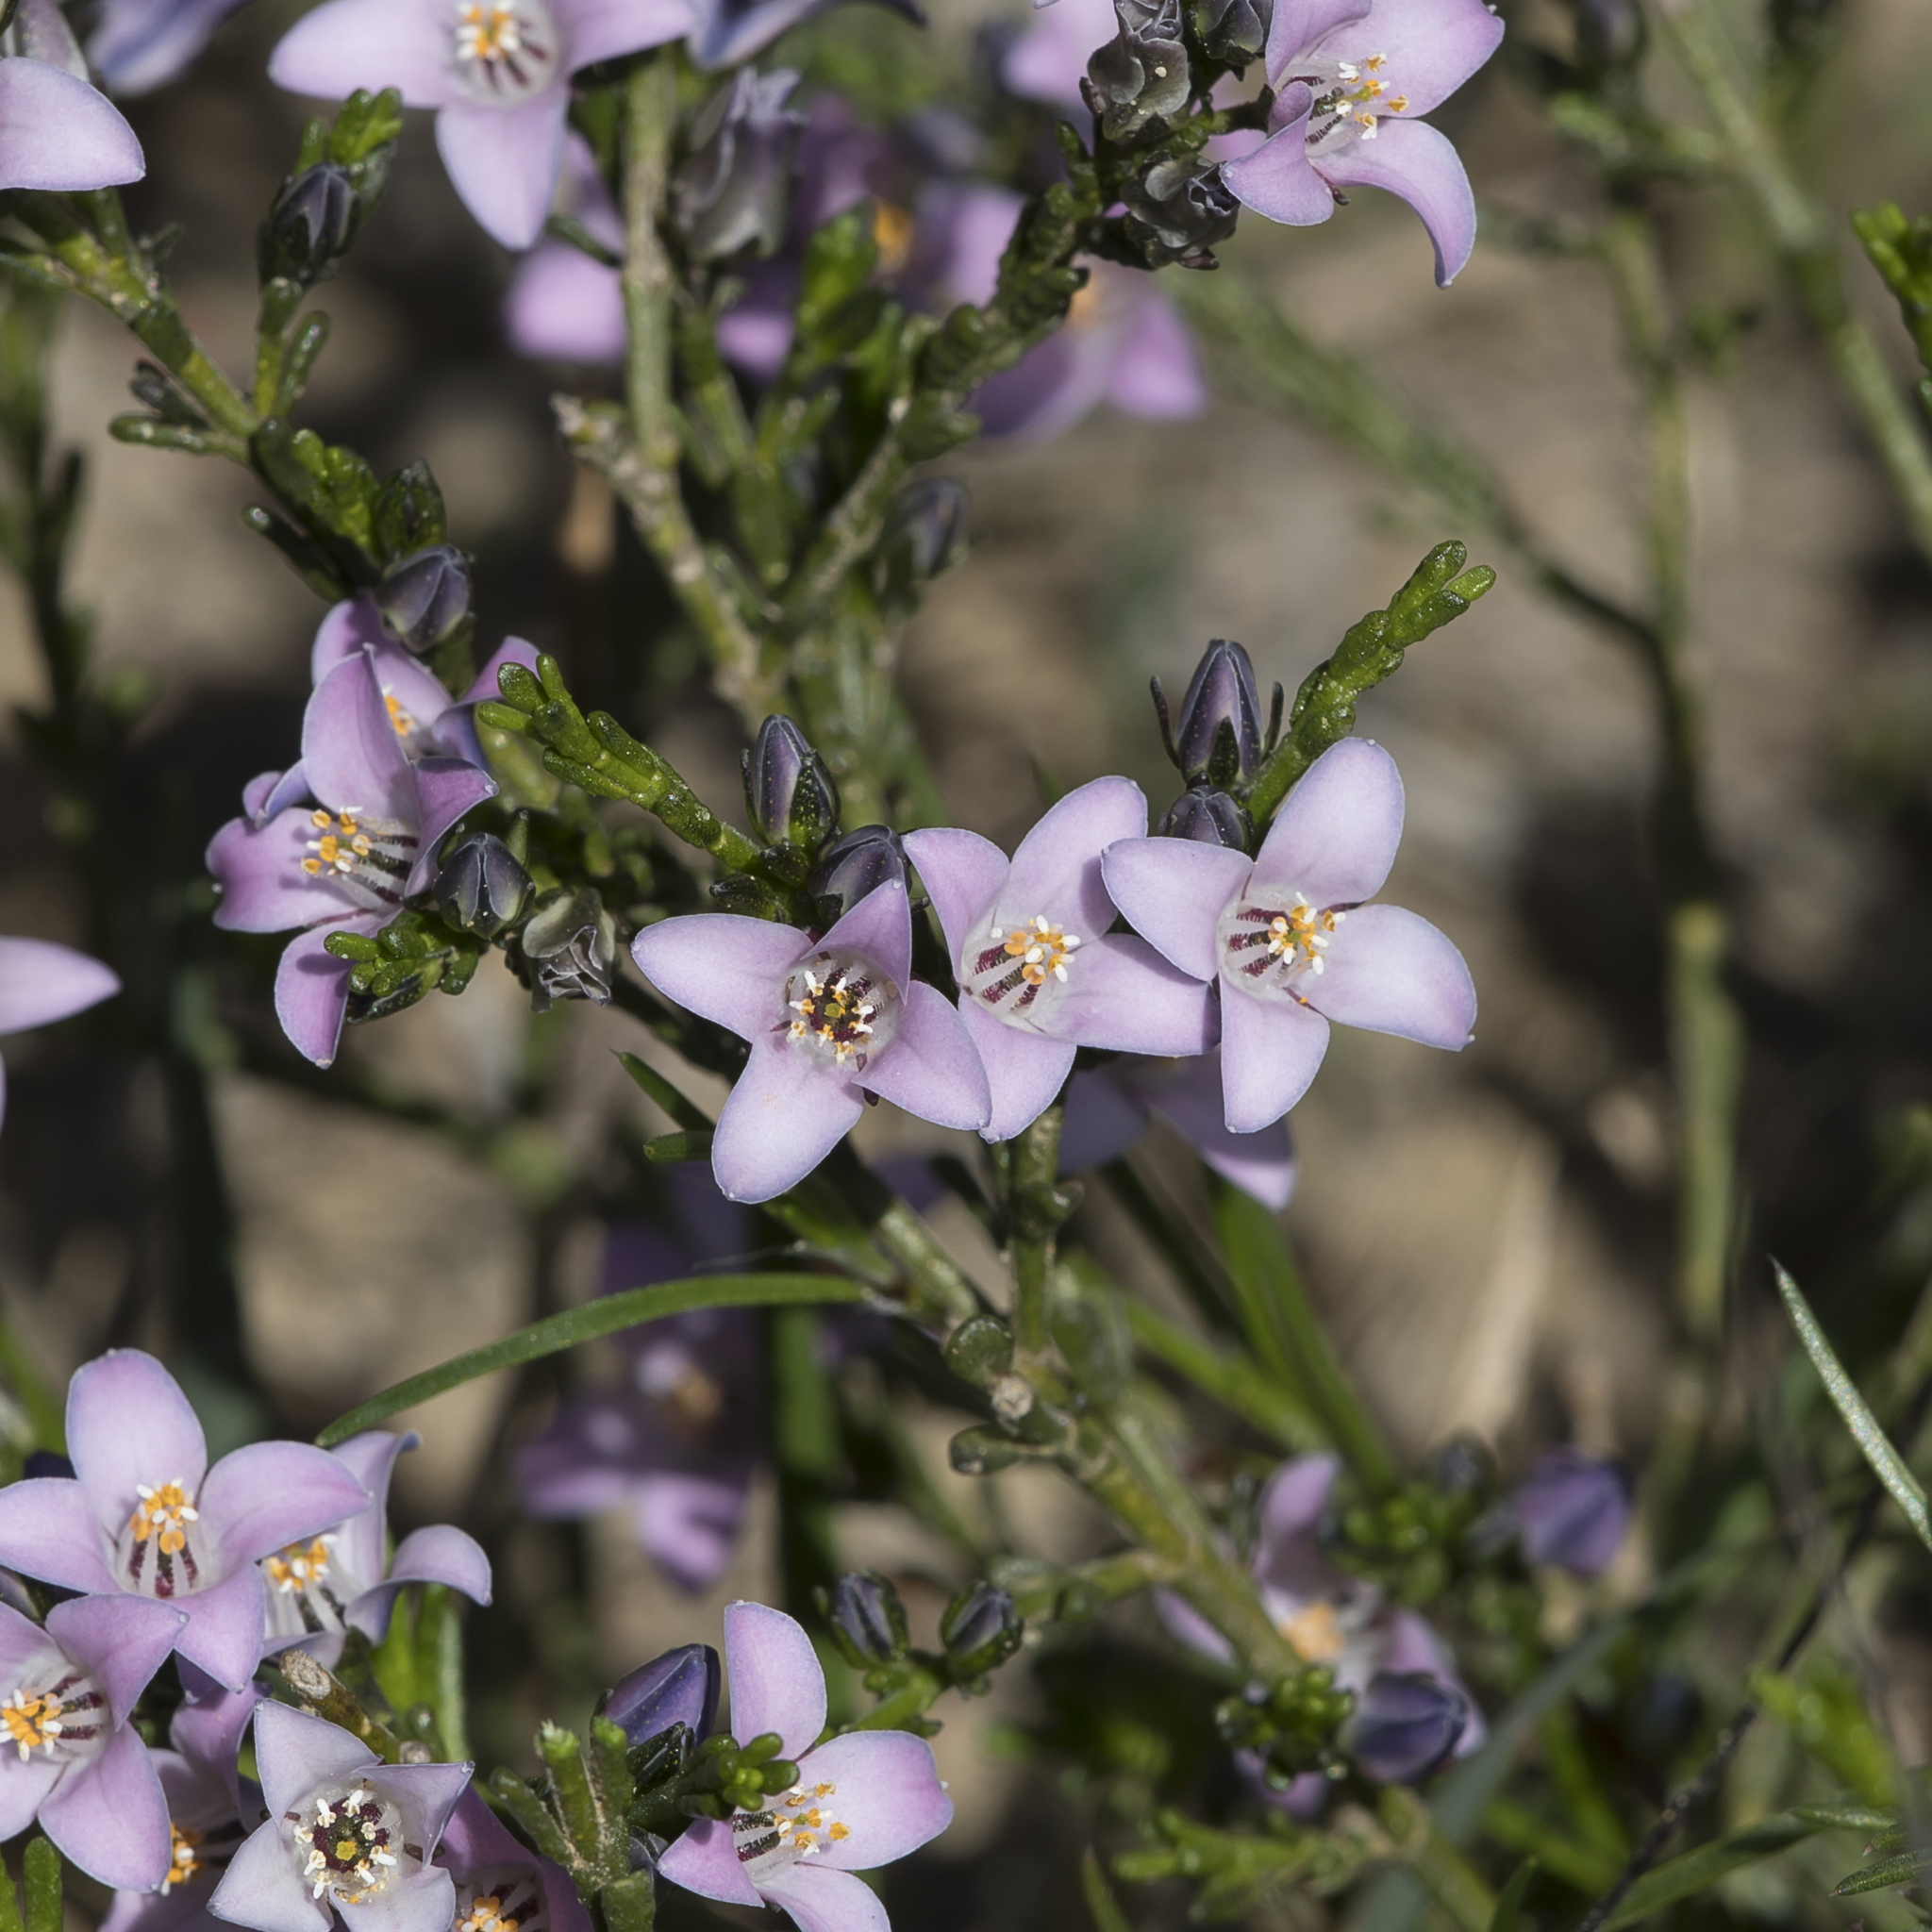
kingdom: Plantae
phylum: Tracheophyta
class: Magnoliopsida
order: Sapindales
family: Rutaceae
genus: Cyanothamnus
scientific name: Cyanothamnus coerulescens
